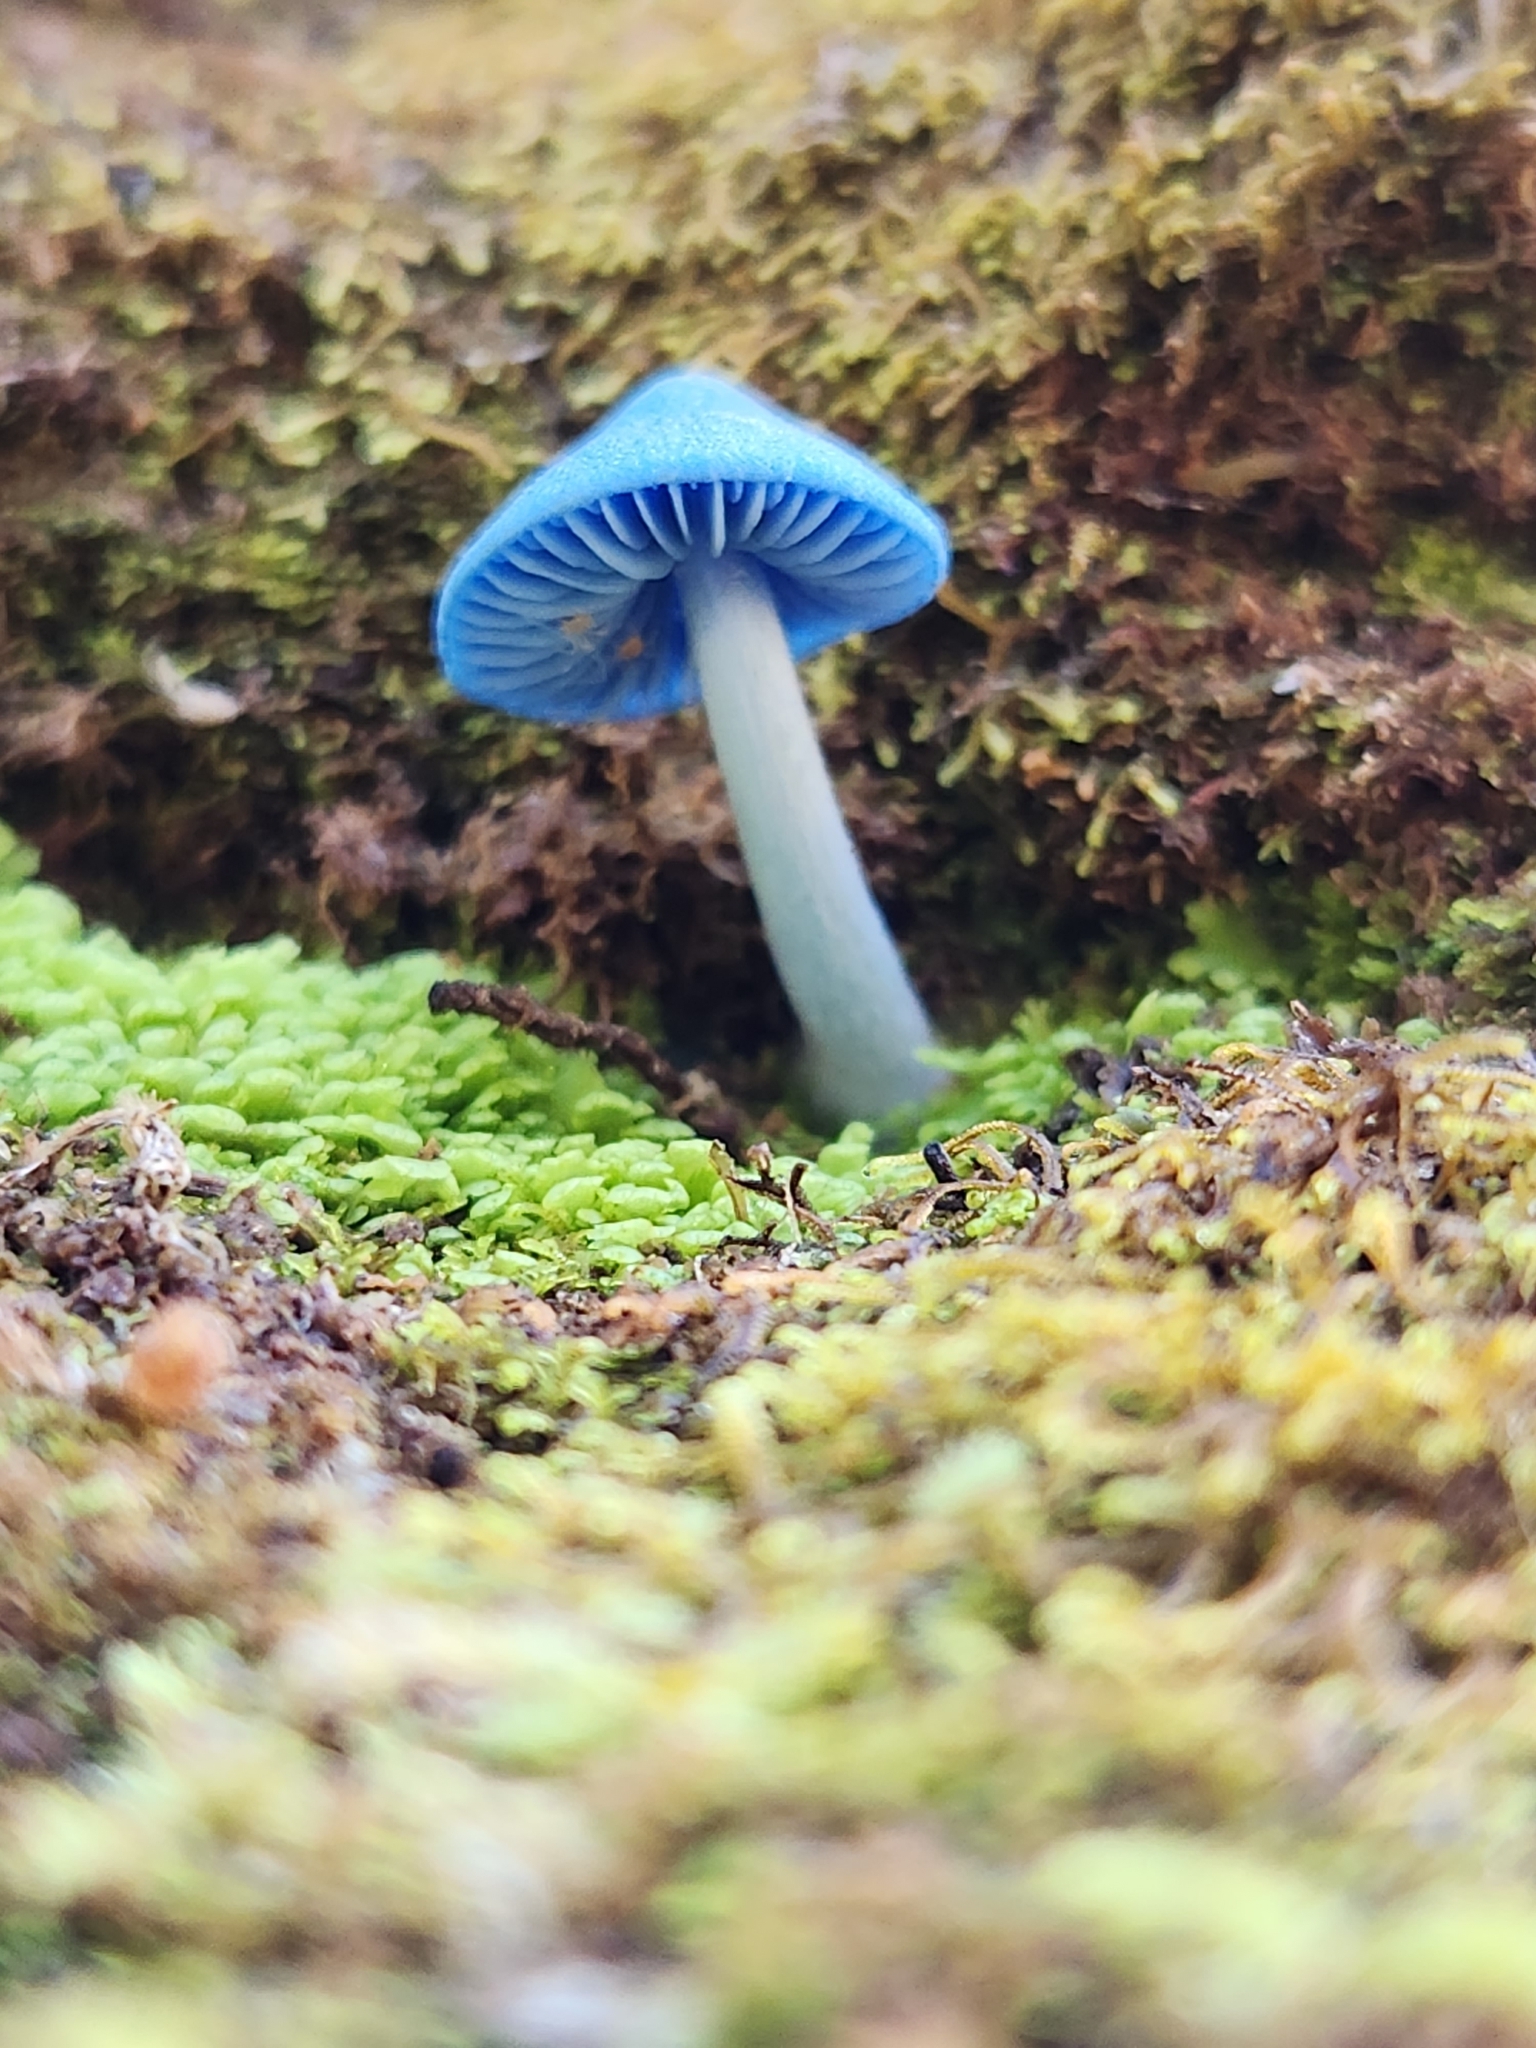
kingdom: Fungi
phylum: Basidiomycota
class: Agaricomycetes
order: Agaricales
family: Entolomataceae
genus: Entoloma
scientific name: Entoloma hochstetteri
